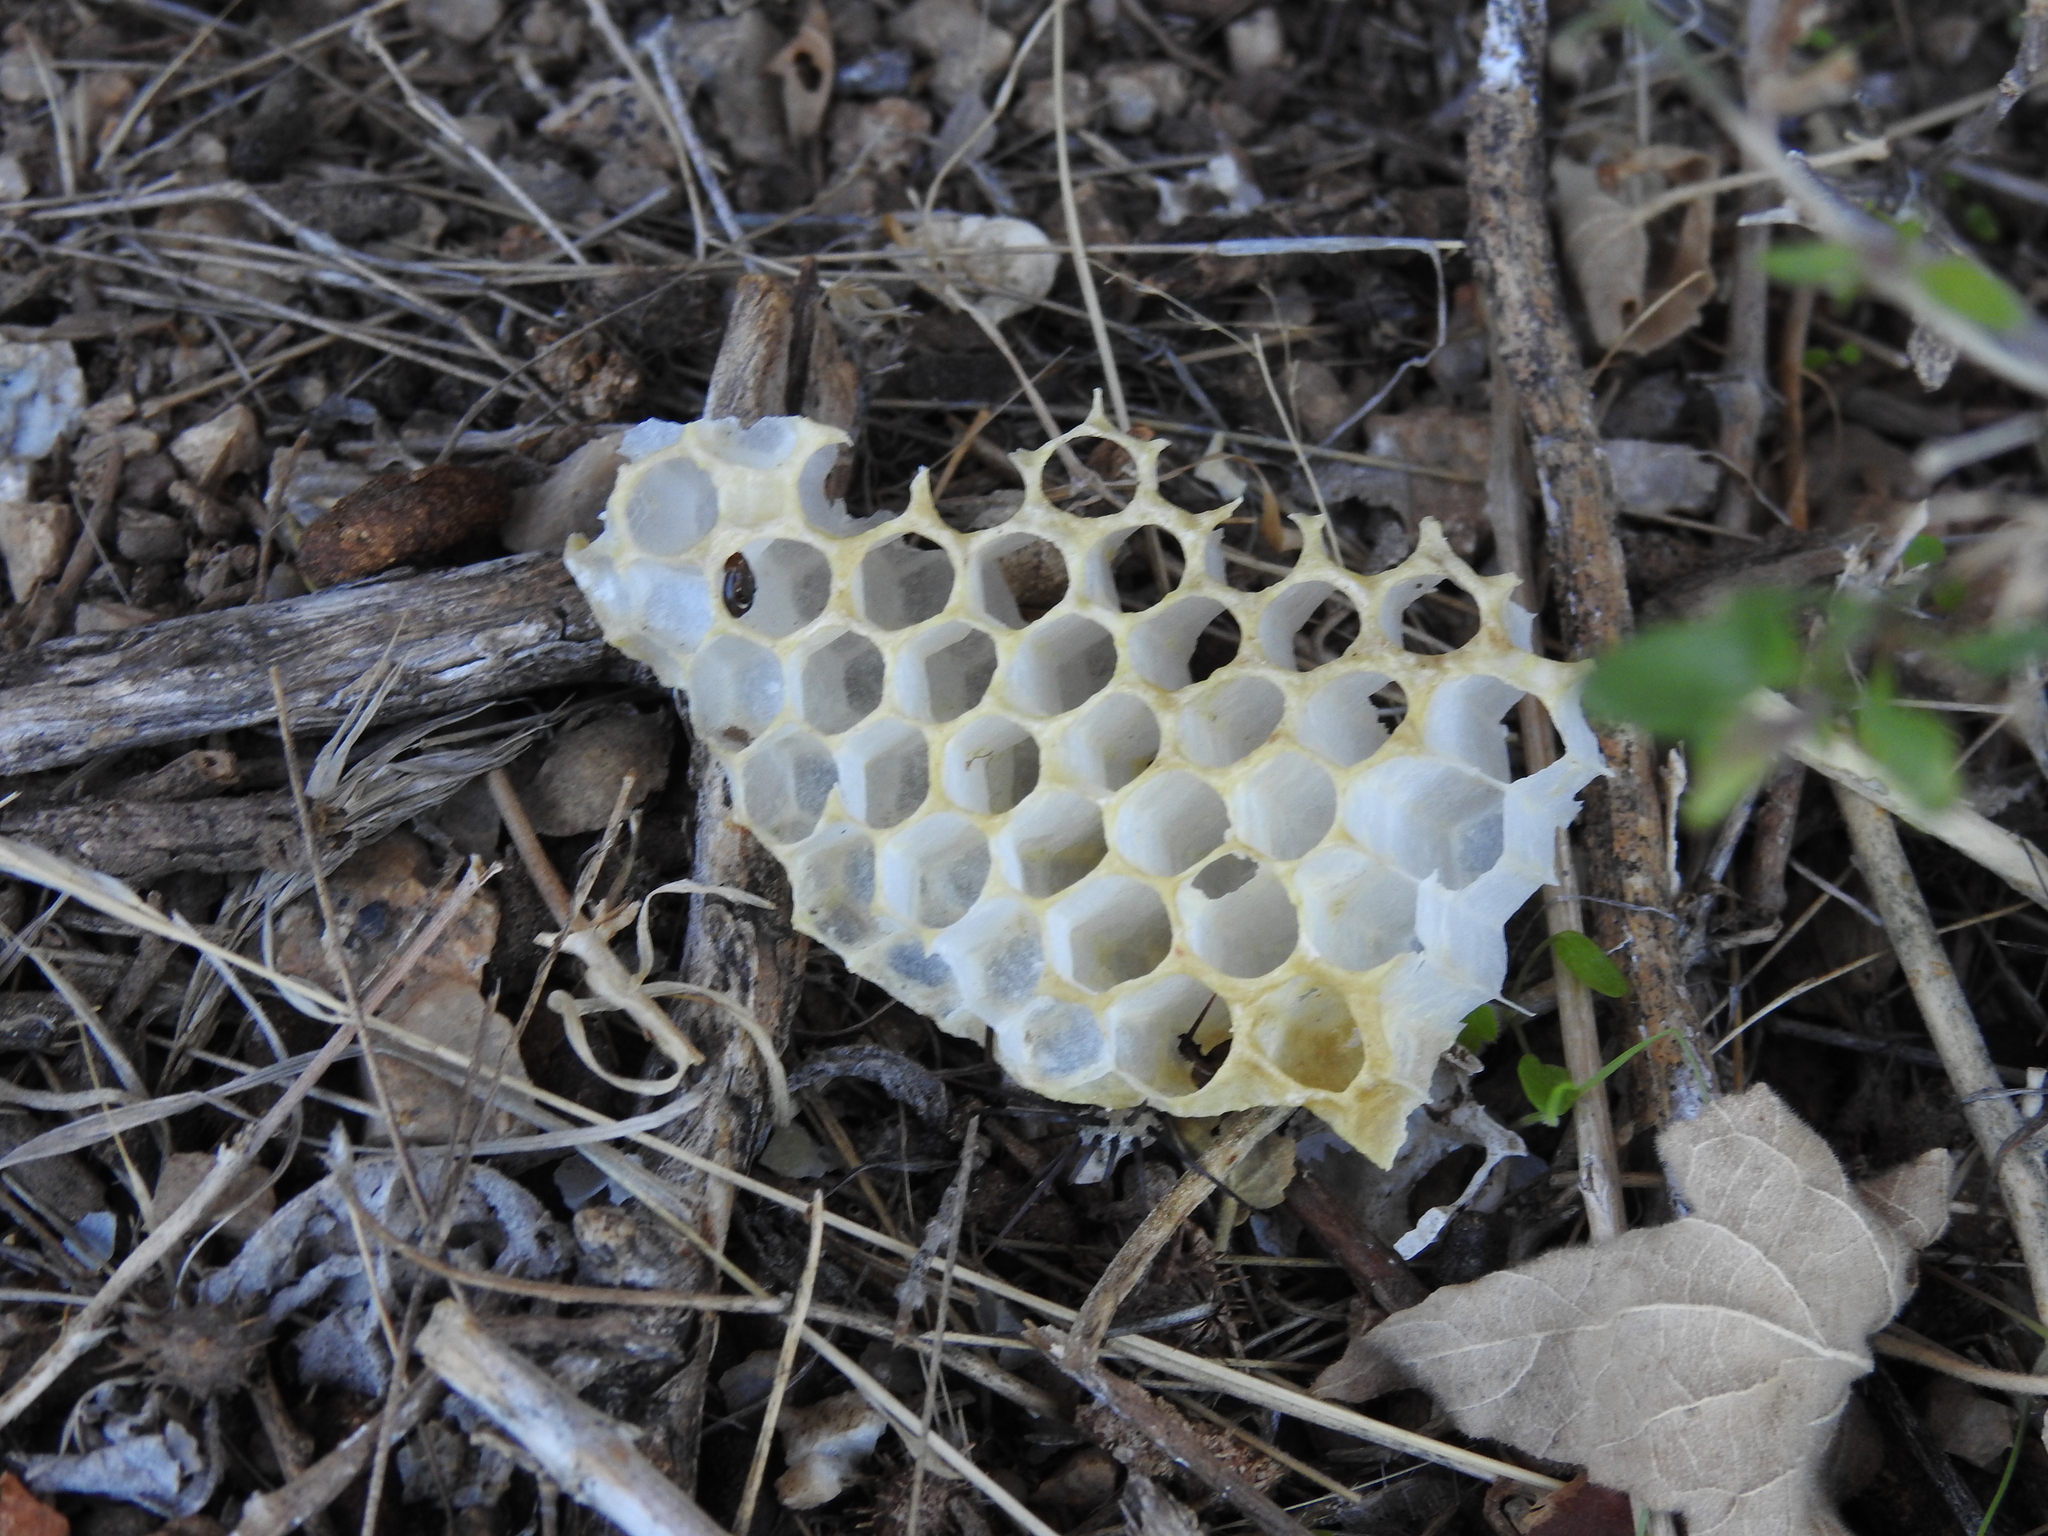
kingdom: Animalia
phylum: Arthropoda
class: Insecta
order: Hymenoptera
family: Apidae
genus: Apis
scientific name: Apis mellifera
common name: Honey bee
